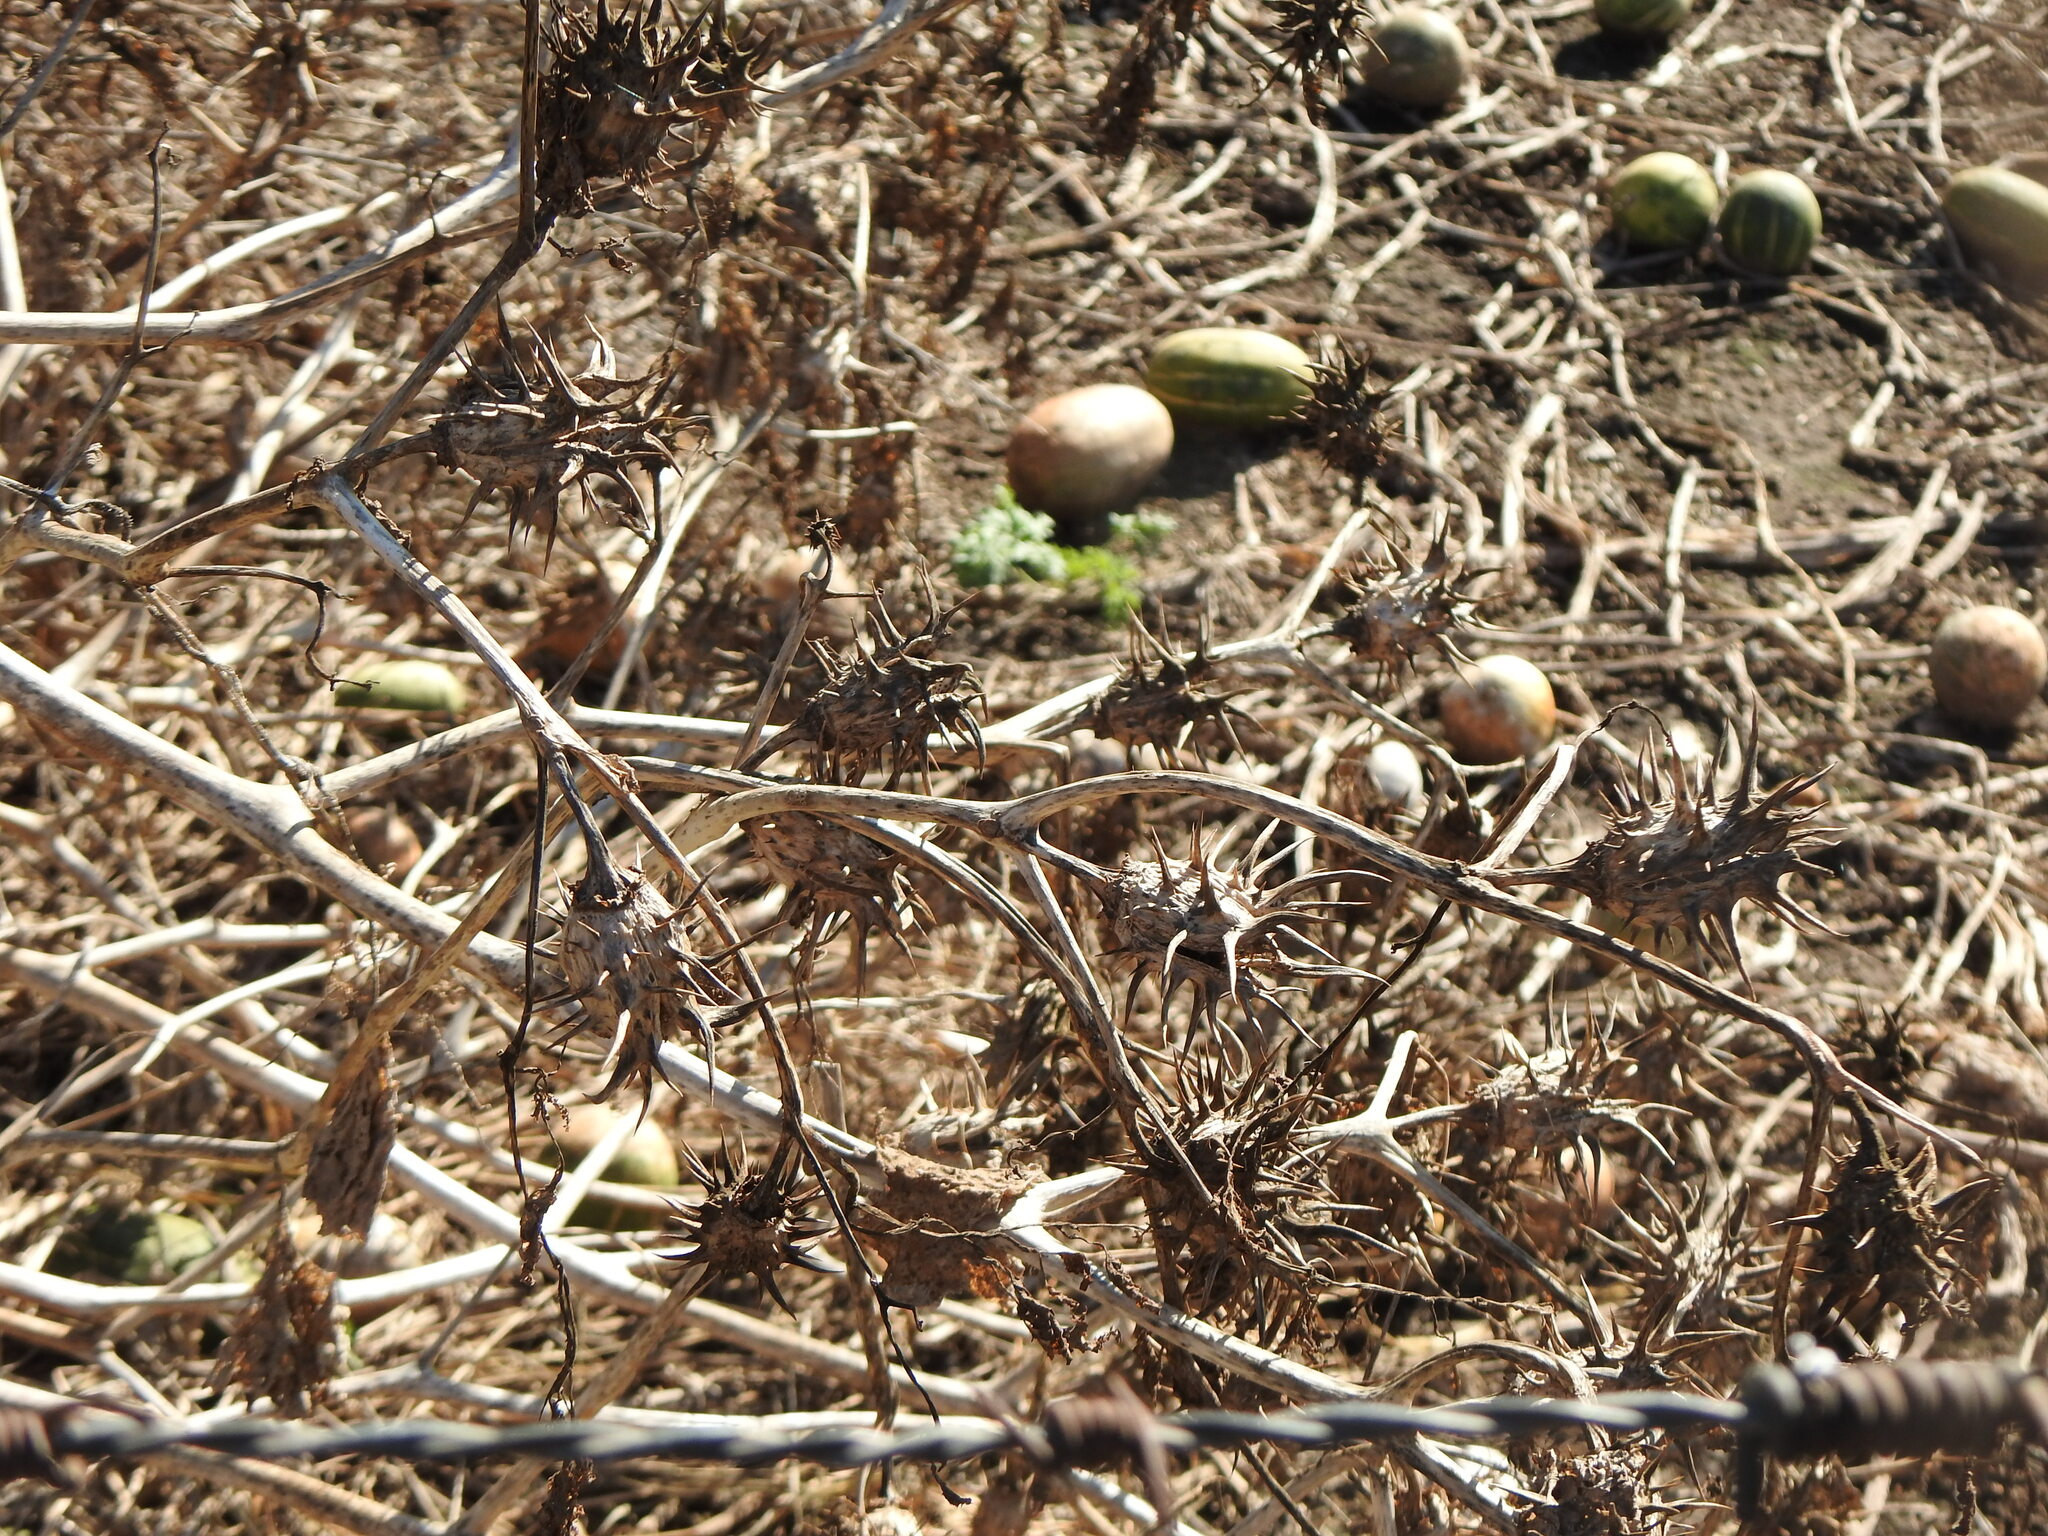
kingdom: Plantae
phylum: Tracheophyta
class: Magnoliopsida
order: Solanales
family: Solanaceae
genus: Datura
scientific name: Datura ferox
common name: Angel's-trumpets
